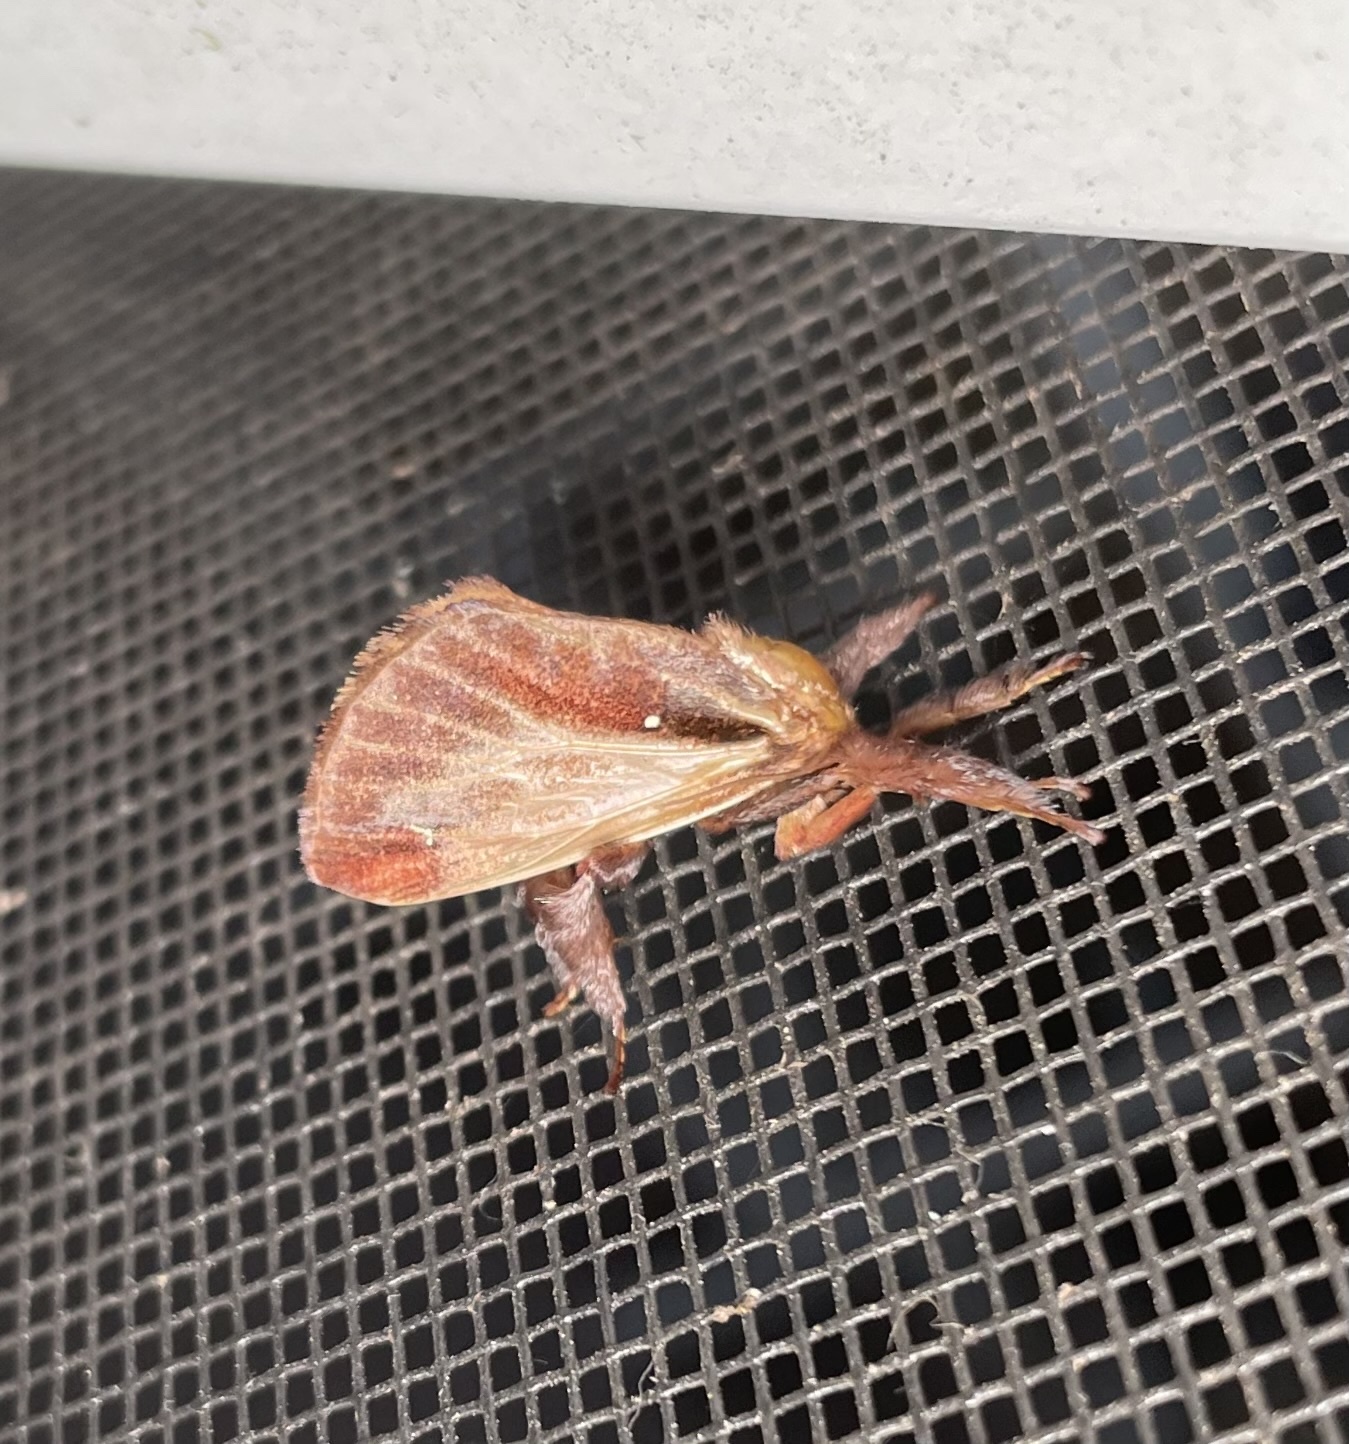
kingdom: Animalia
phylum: Arthropoda
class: Insecta
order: Lepidoptera
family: Limacodidae
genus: Acharia
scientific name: Acharia stimulea
